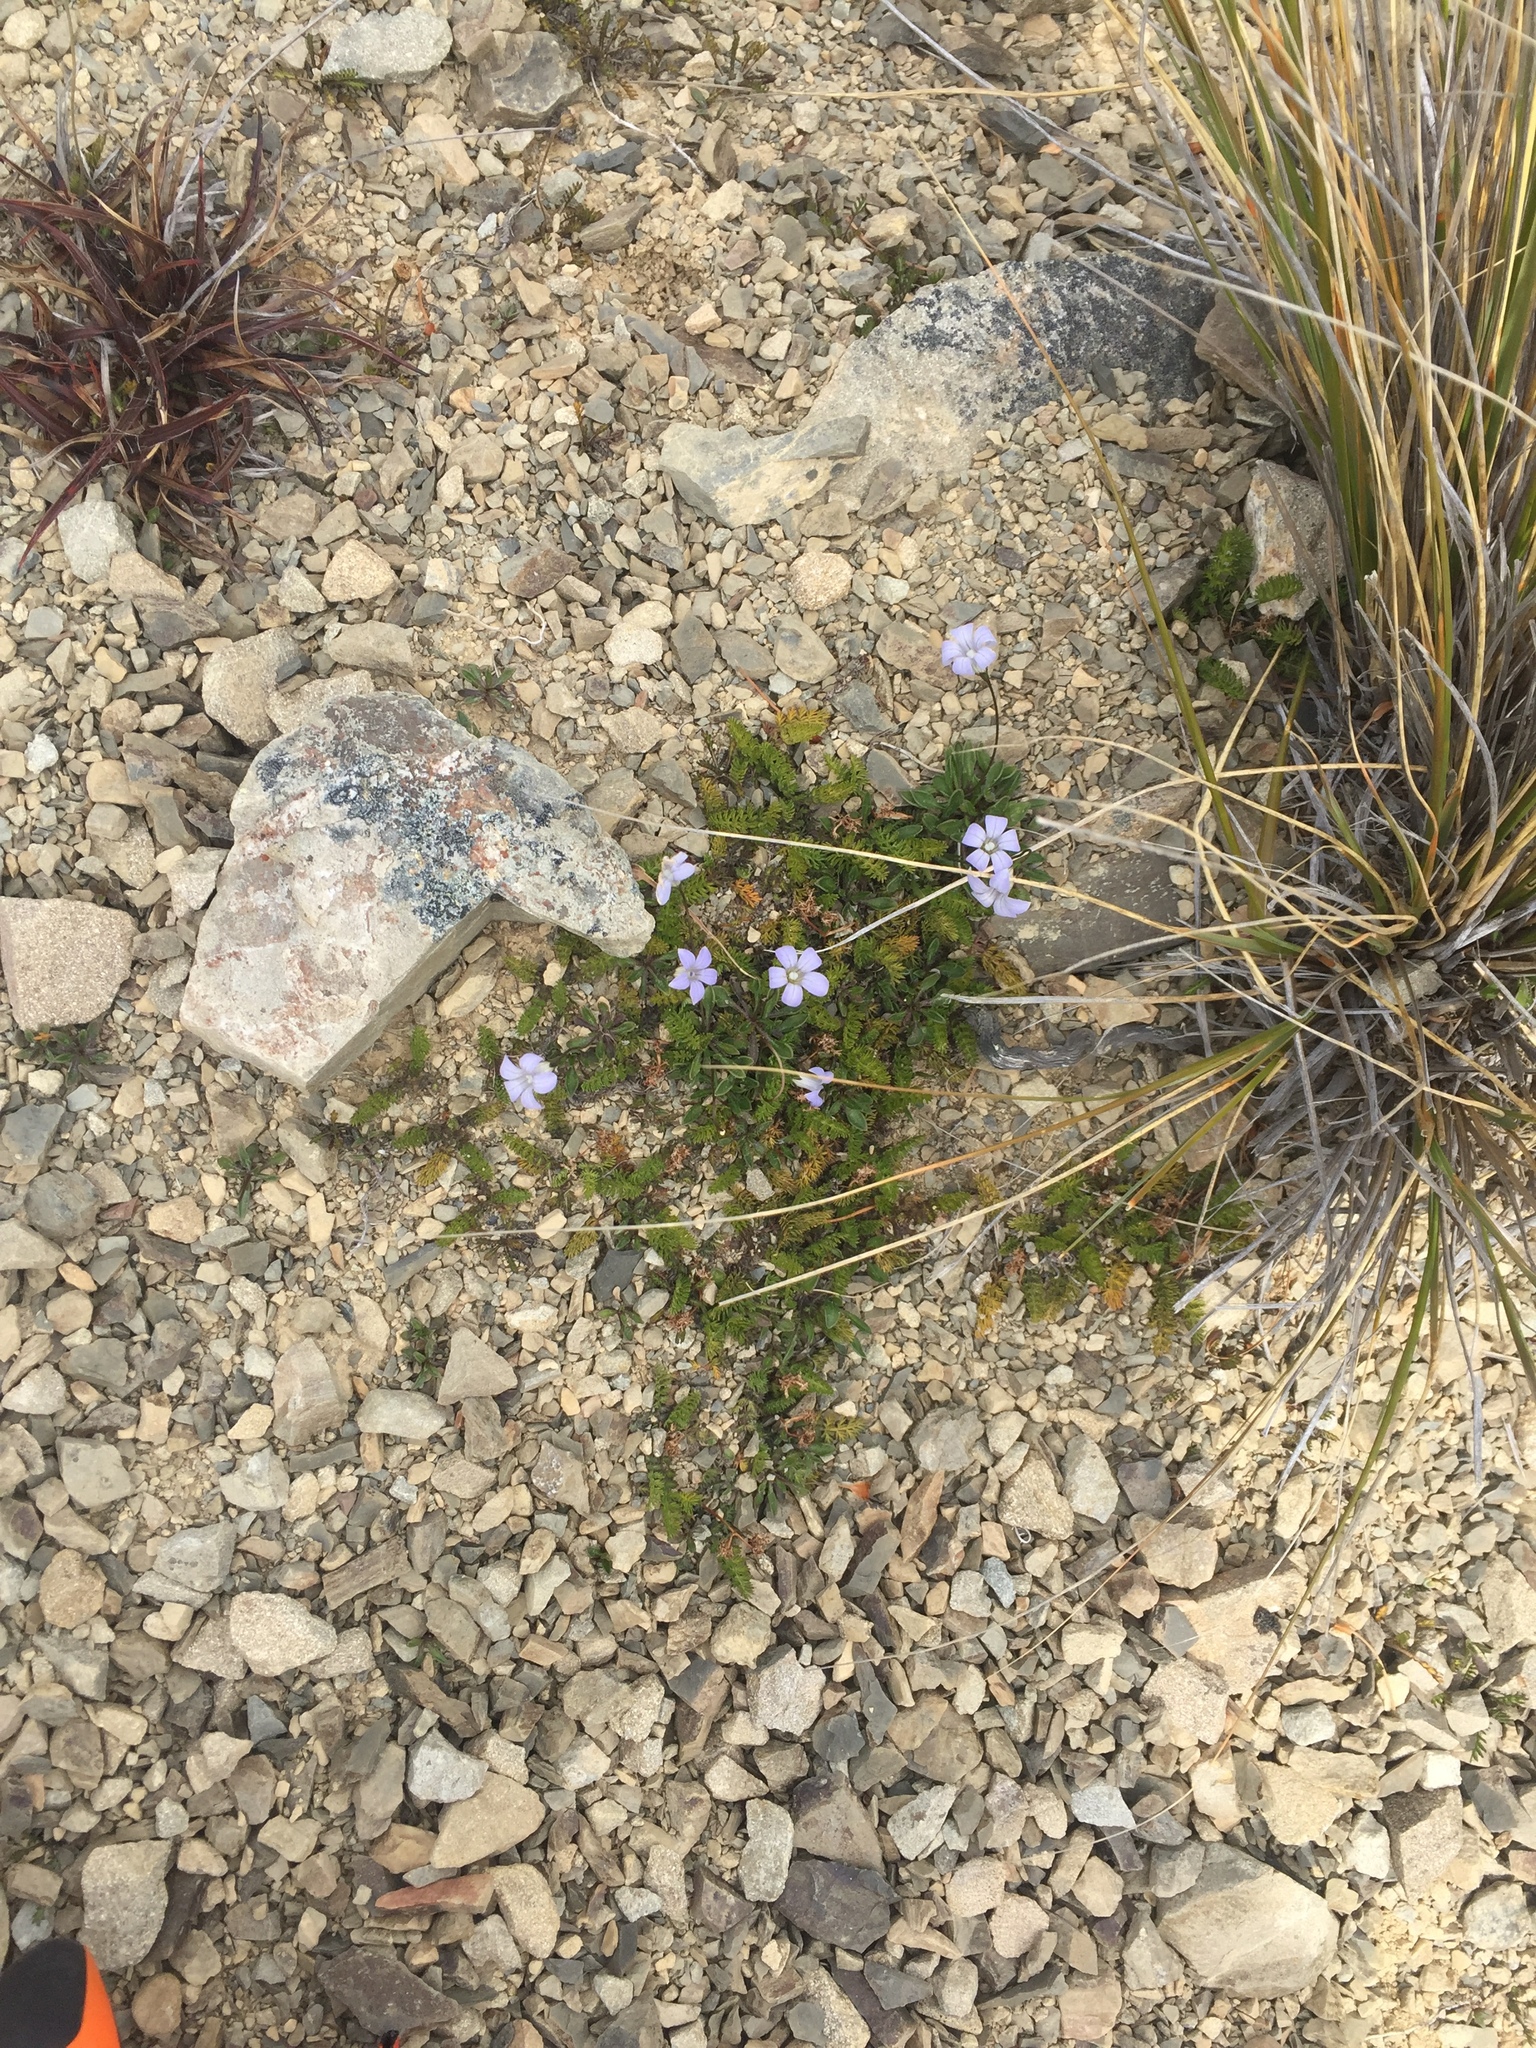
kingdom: Plantae
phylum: Tracheophyta
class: Magnoliopsida
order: Asterales
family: Campanulaceae
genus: Wahlenbergia
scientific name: Wahlenbergia albomarginata
